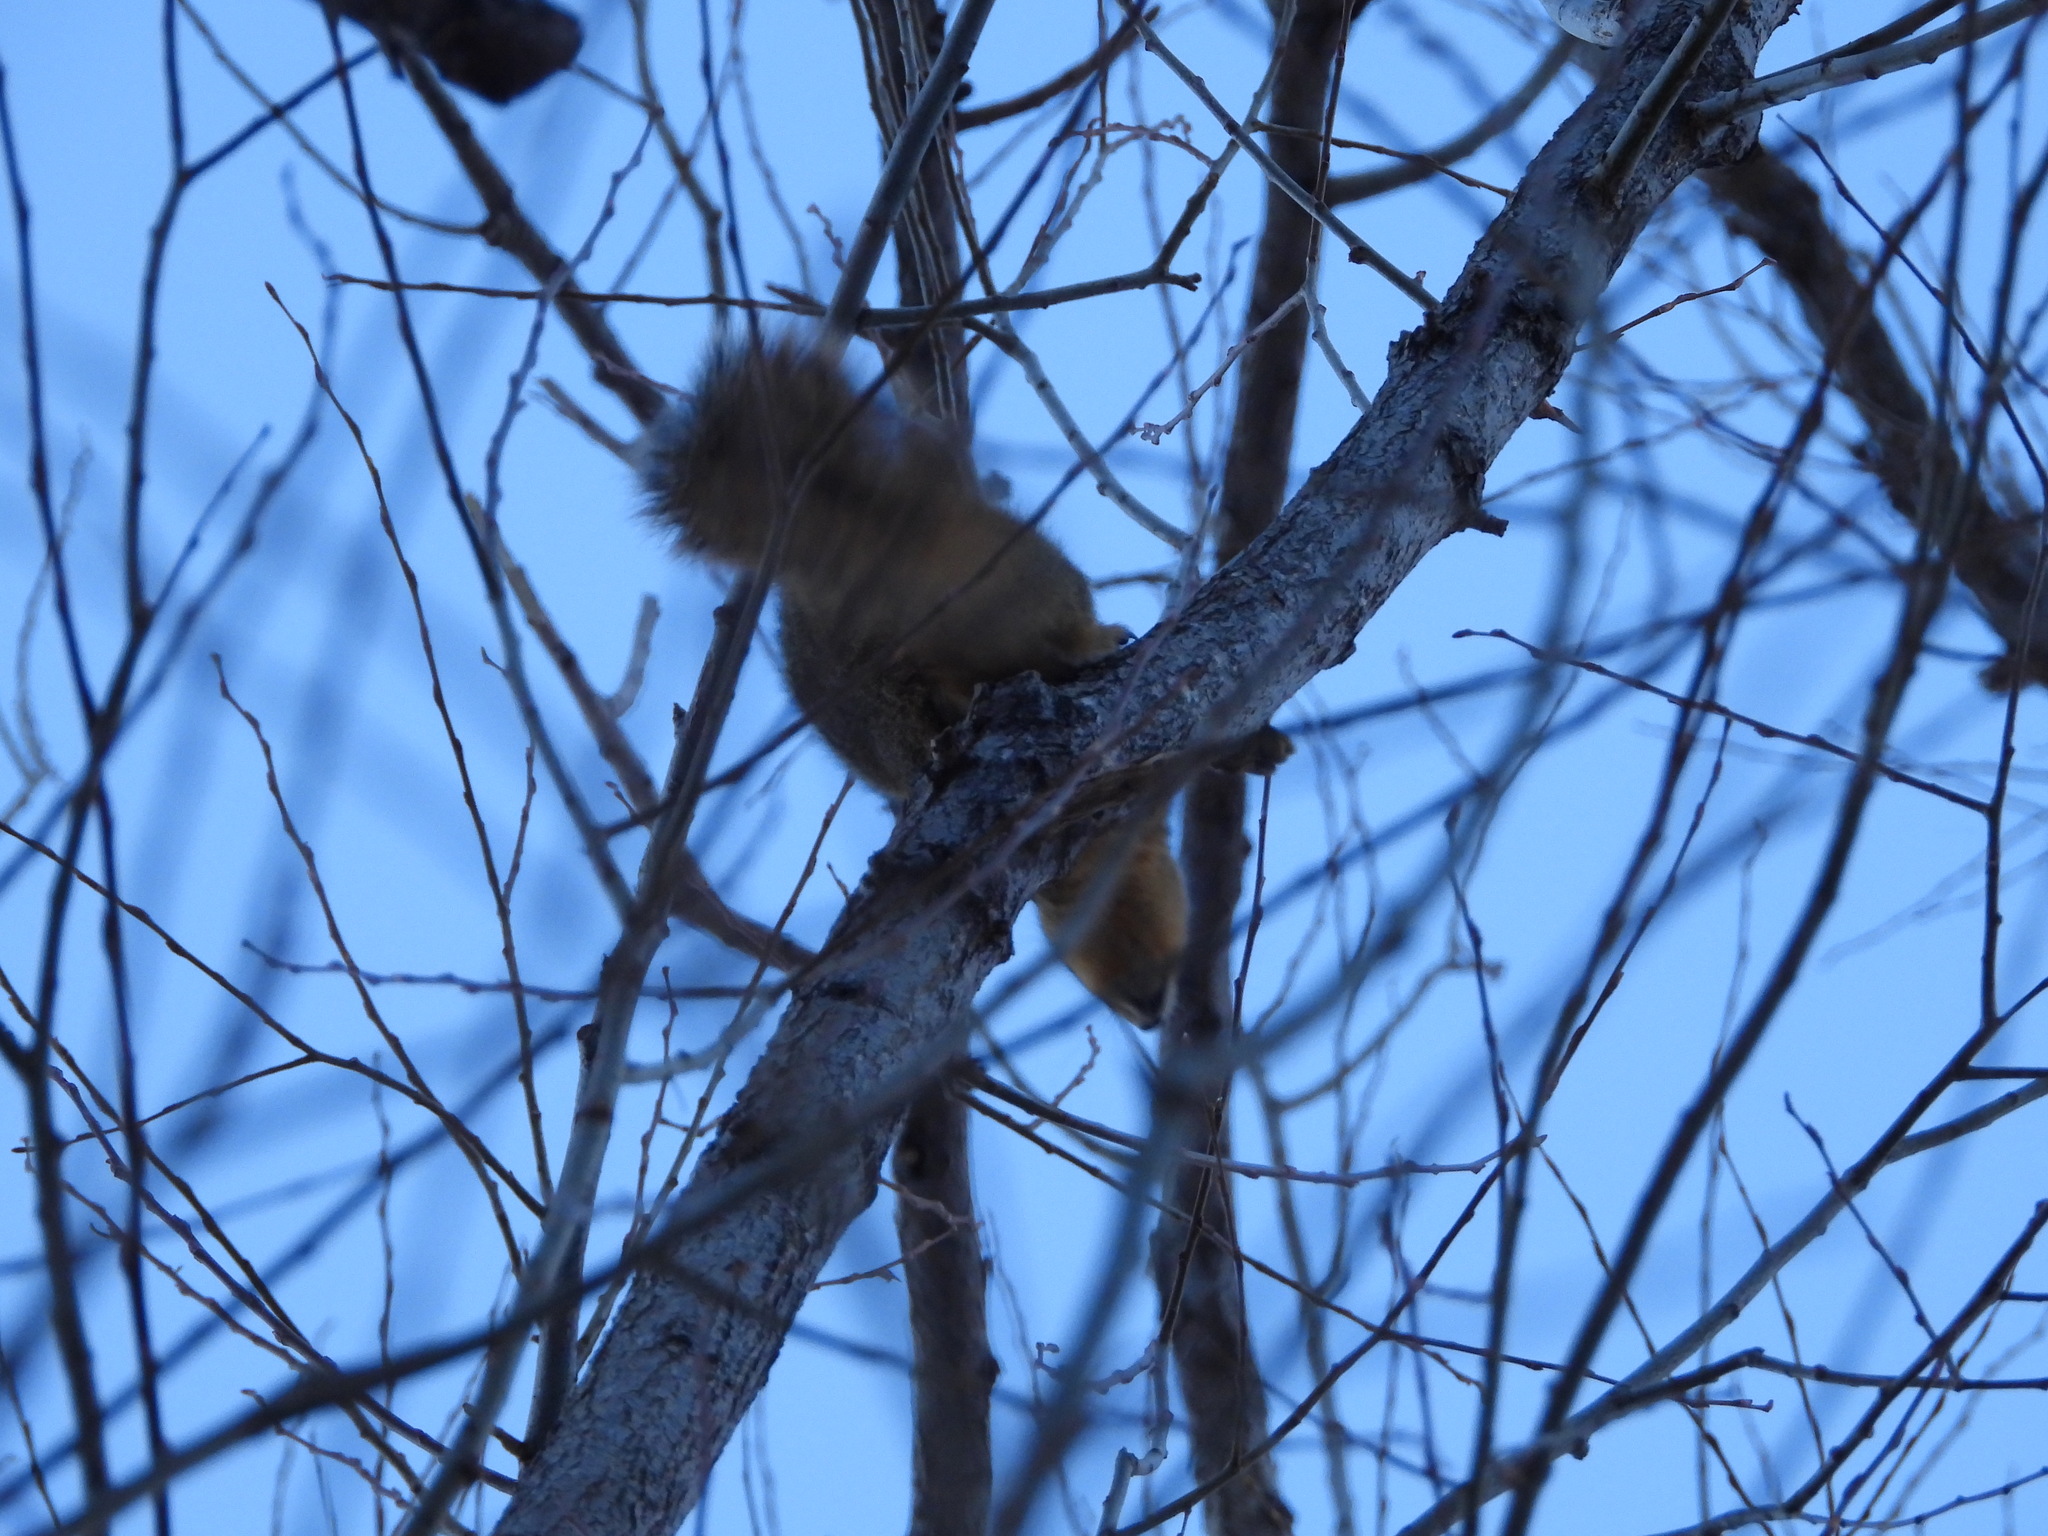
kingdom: Animalia
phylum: Chordata
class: Mammalia
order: Rodentia
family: Sciuridae
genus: Sciurus
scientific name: Sciurus niger
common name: Fox squirrel
